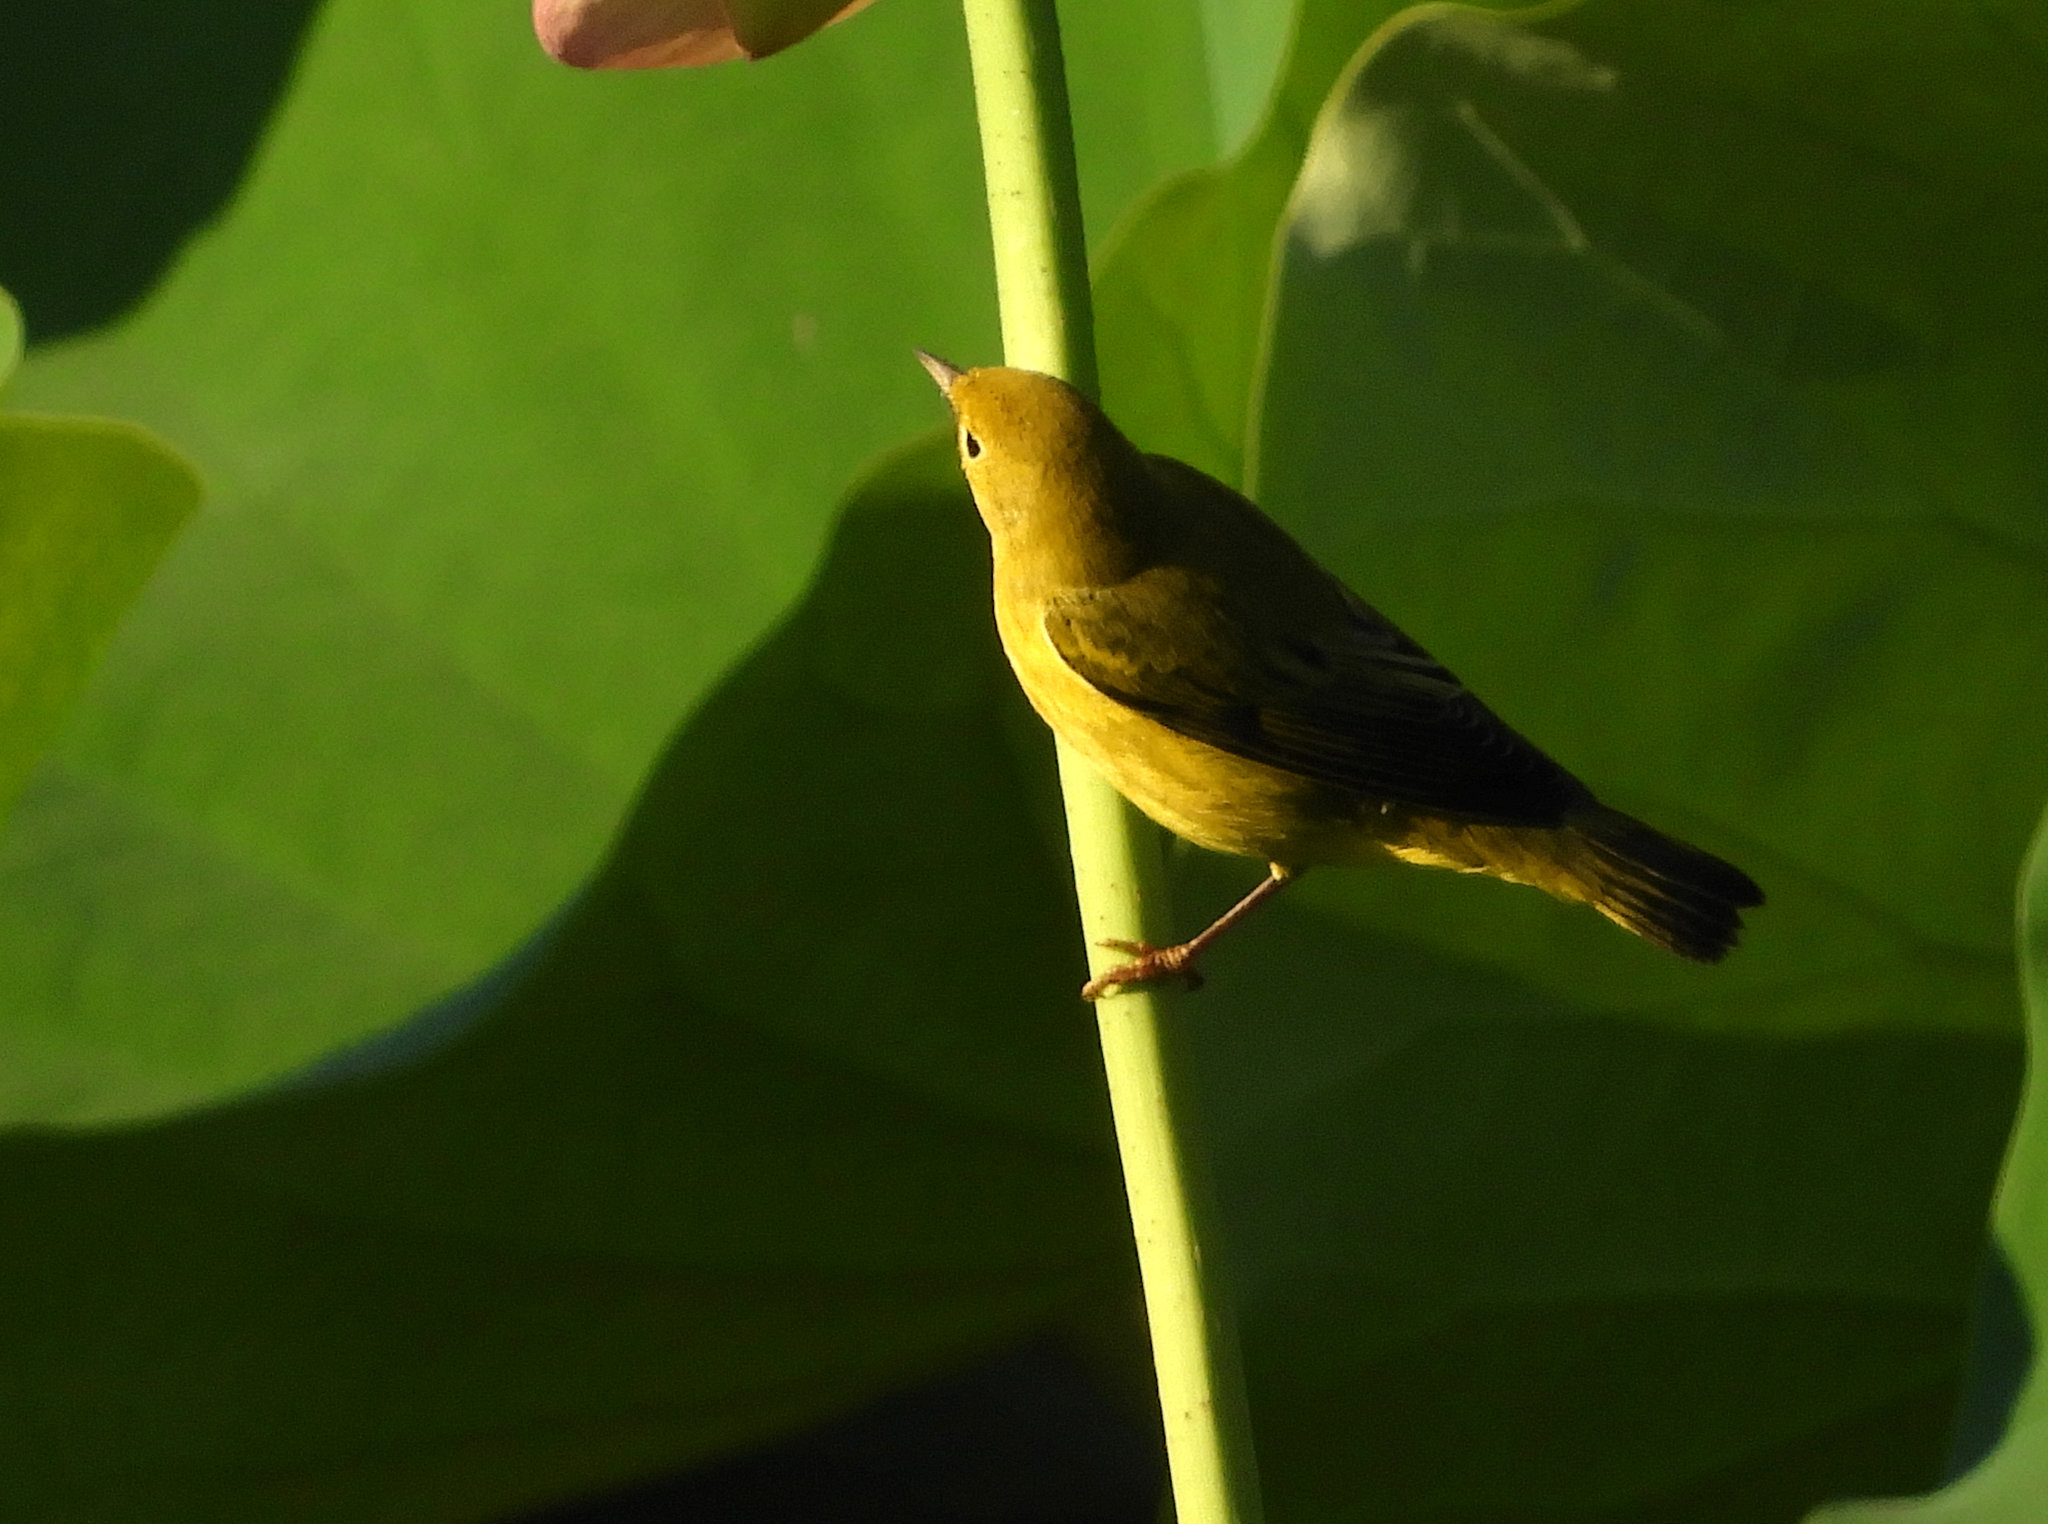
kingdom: Animalia
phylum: Chordata
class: Aves
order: Passeriformes
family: Parulidae
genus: Setophaga
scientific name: Setophaga petechia
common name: Yellow warbler
